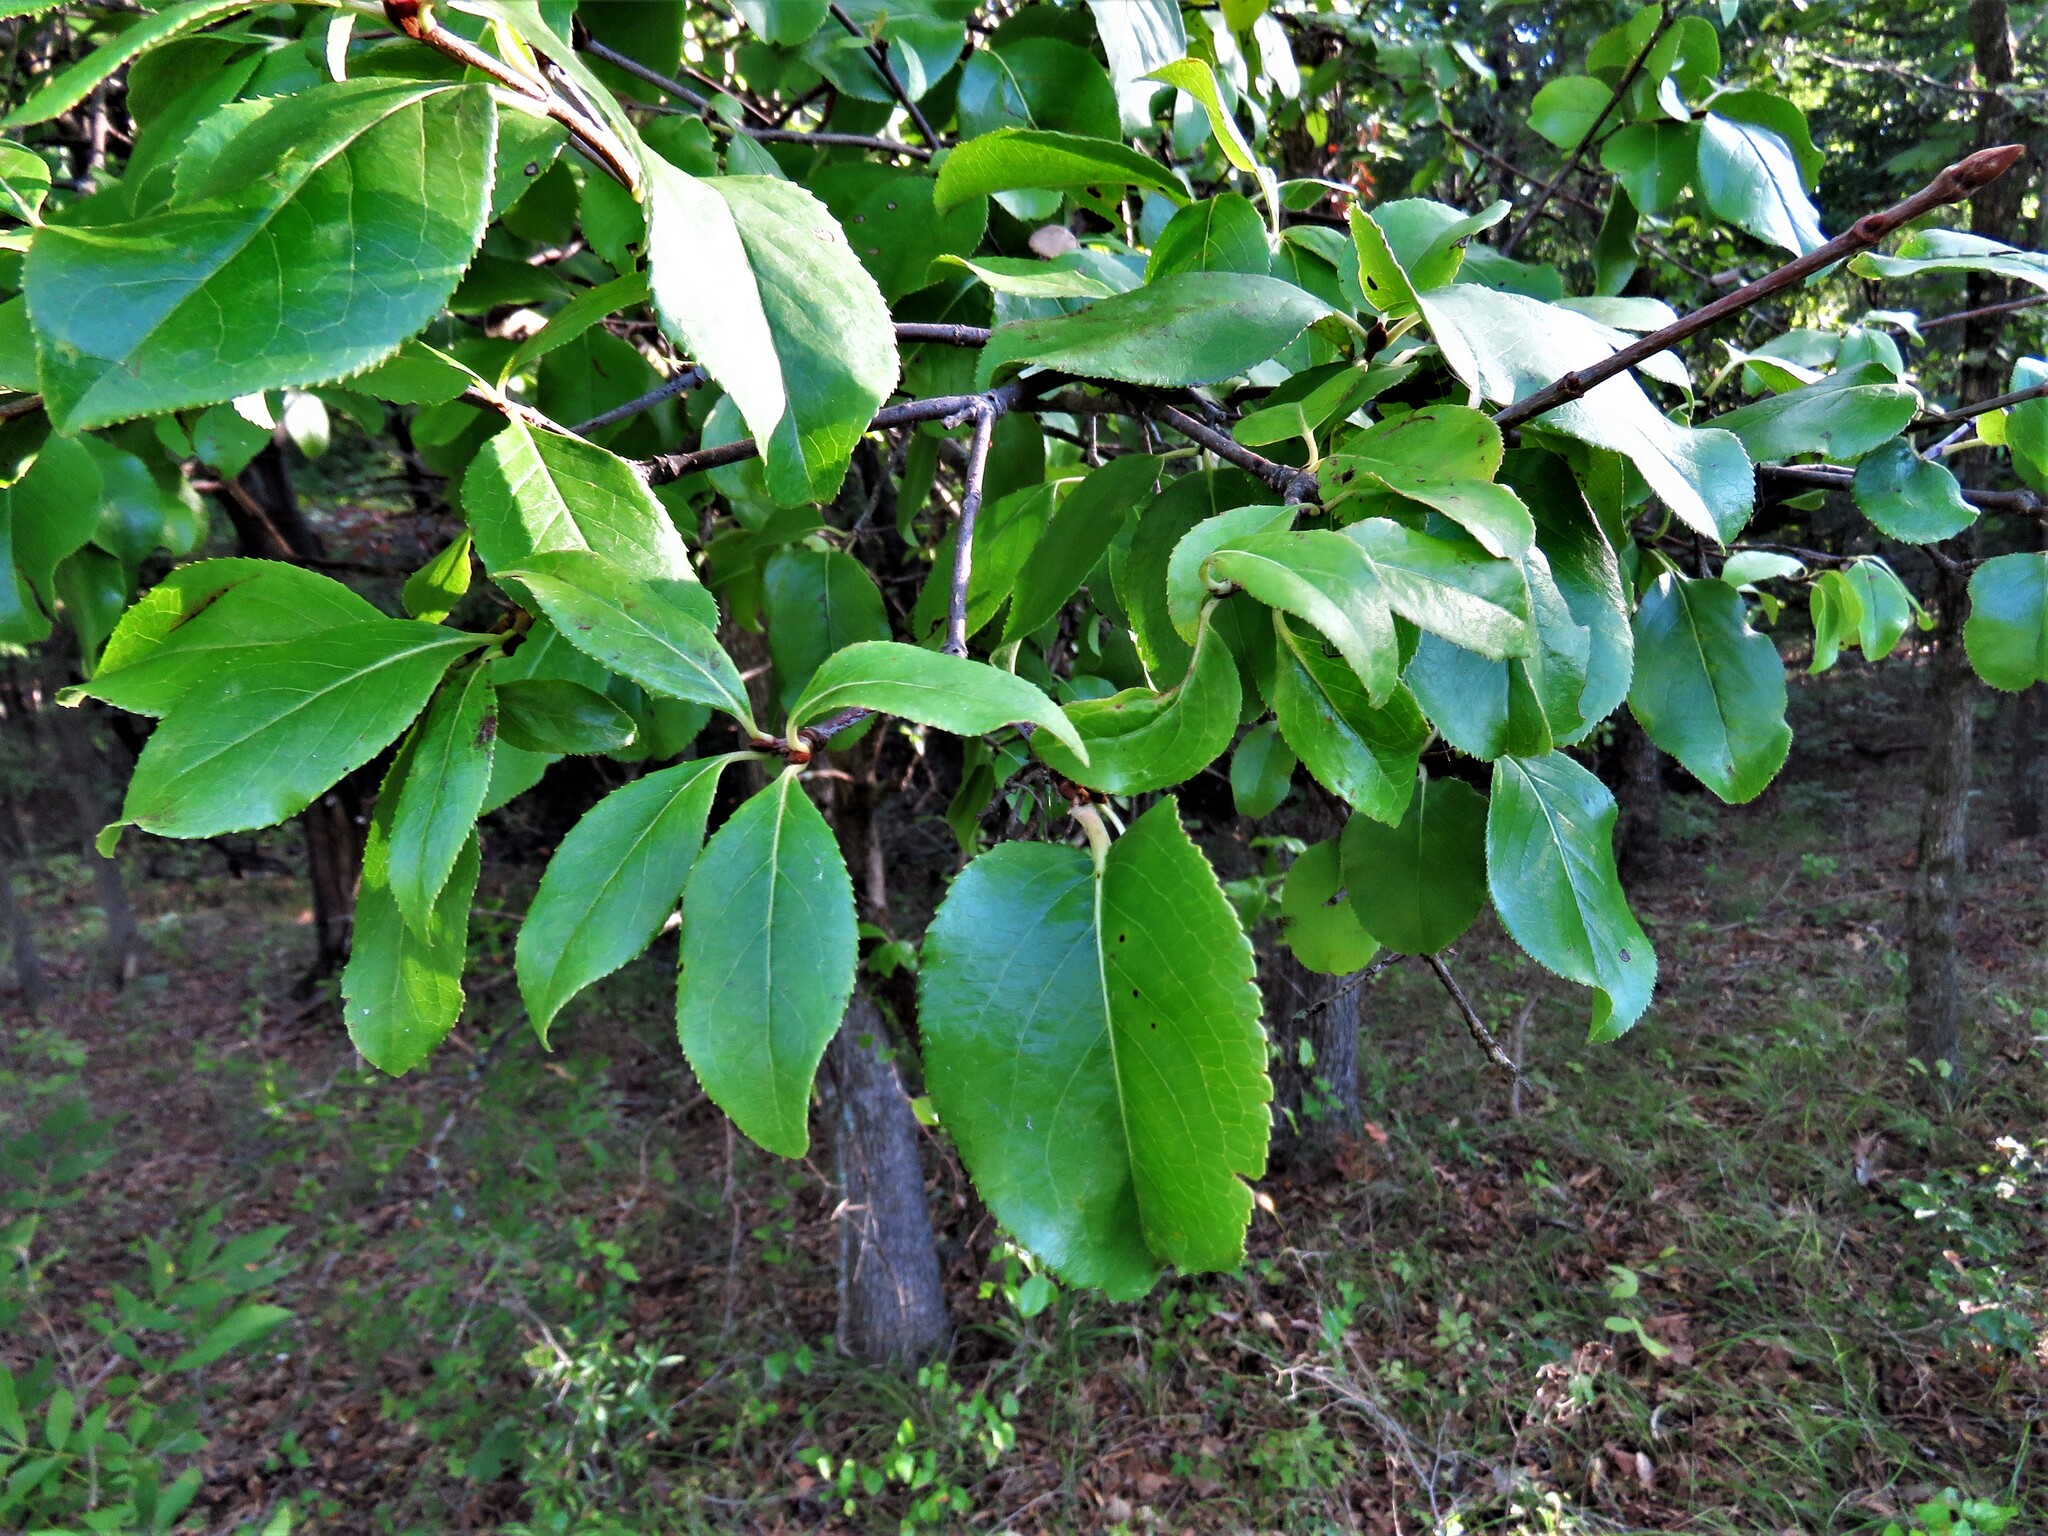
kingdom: Plantae
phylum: Tracheophyta
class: Magnoliopsida
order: Dipsacales
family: Viburnaceae
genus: Viburnum
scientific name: Viburnum rufidulum
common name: Blue haw
